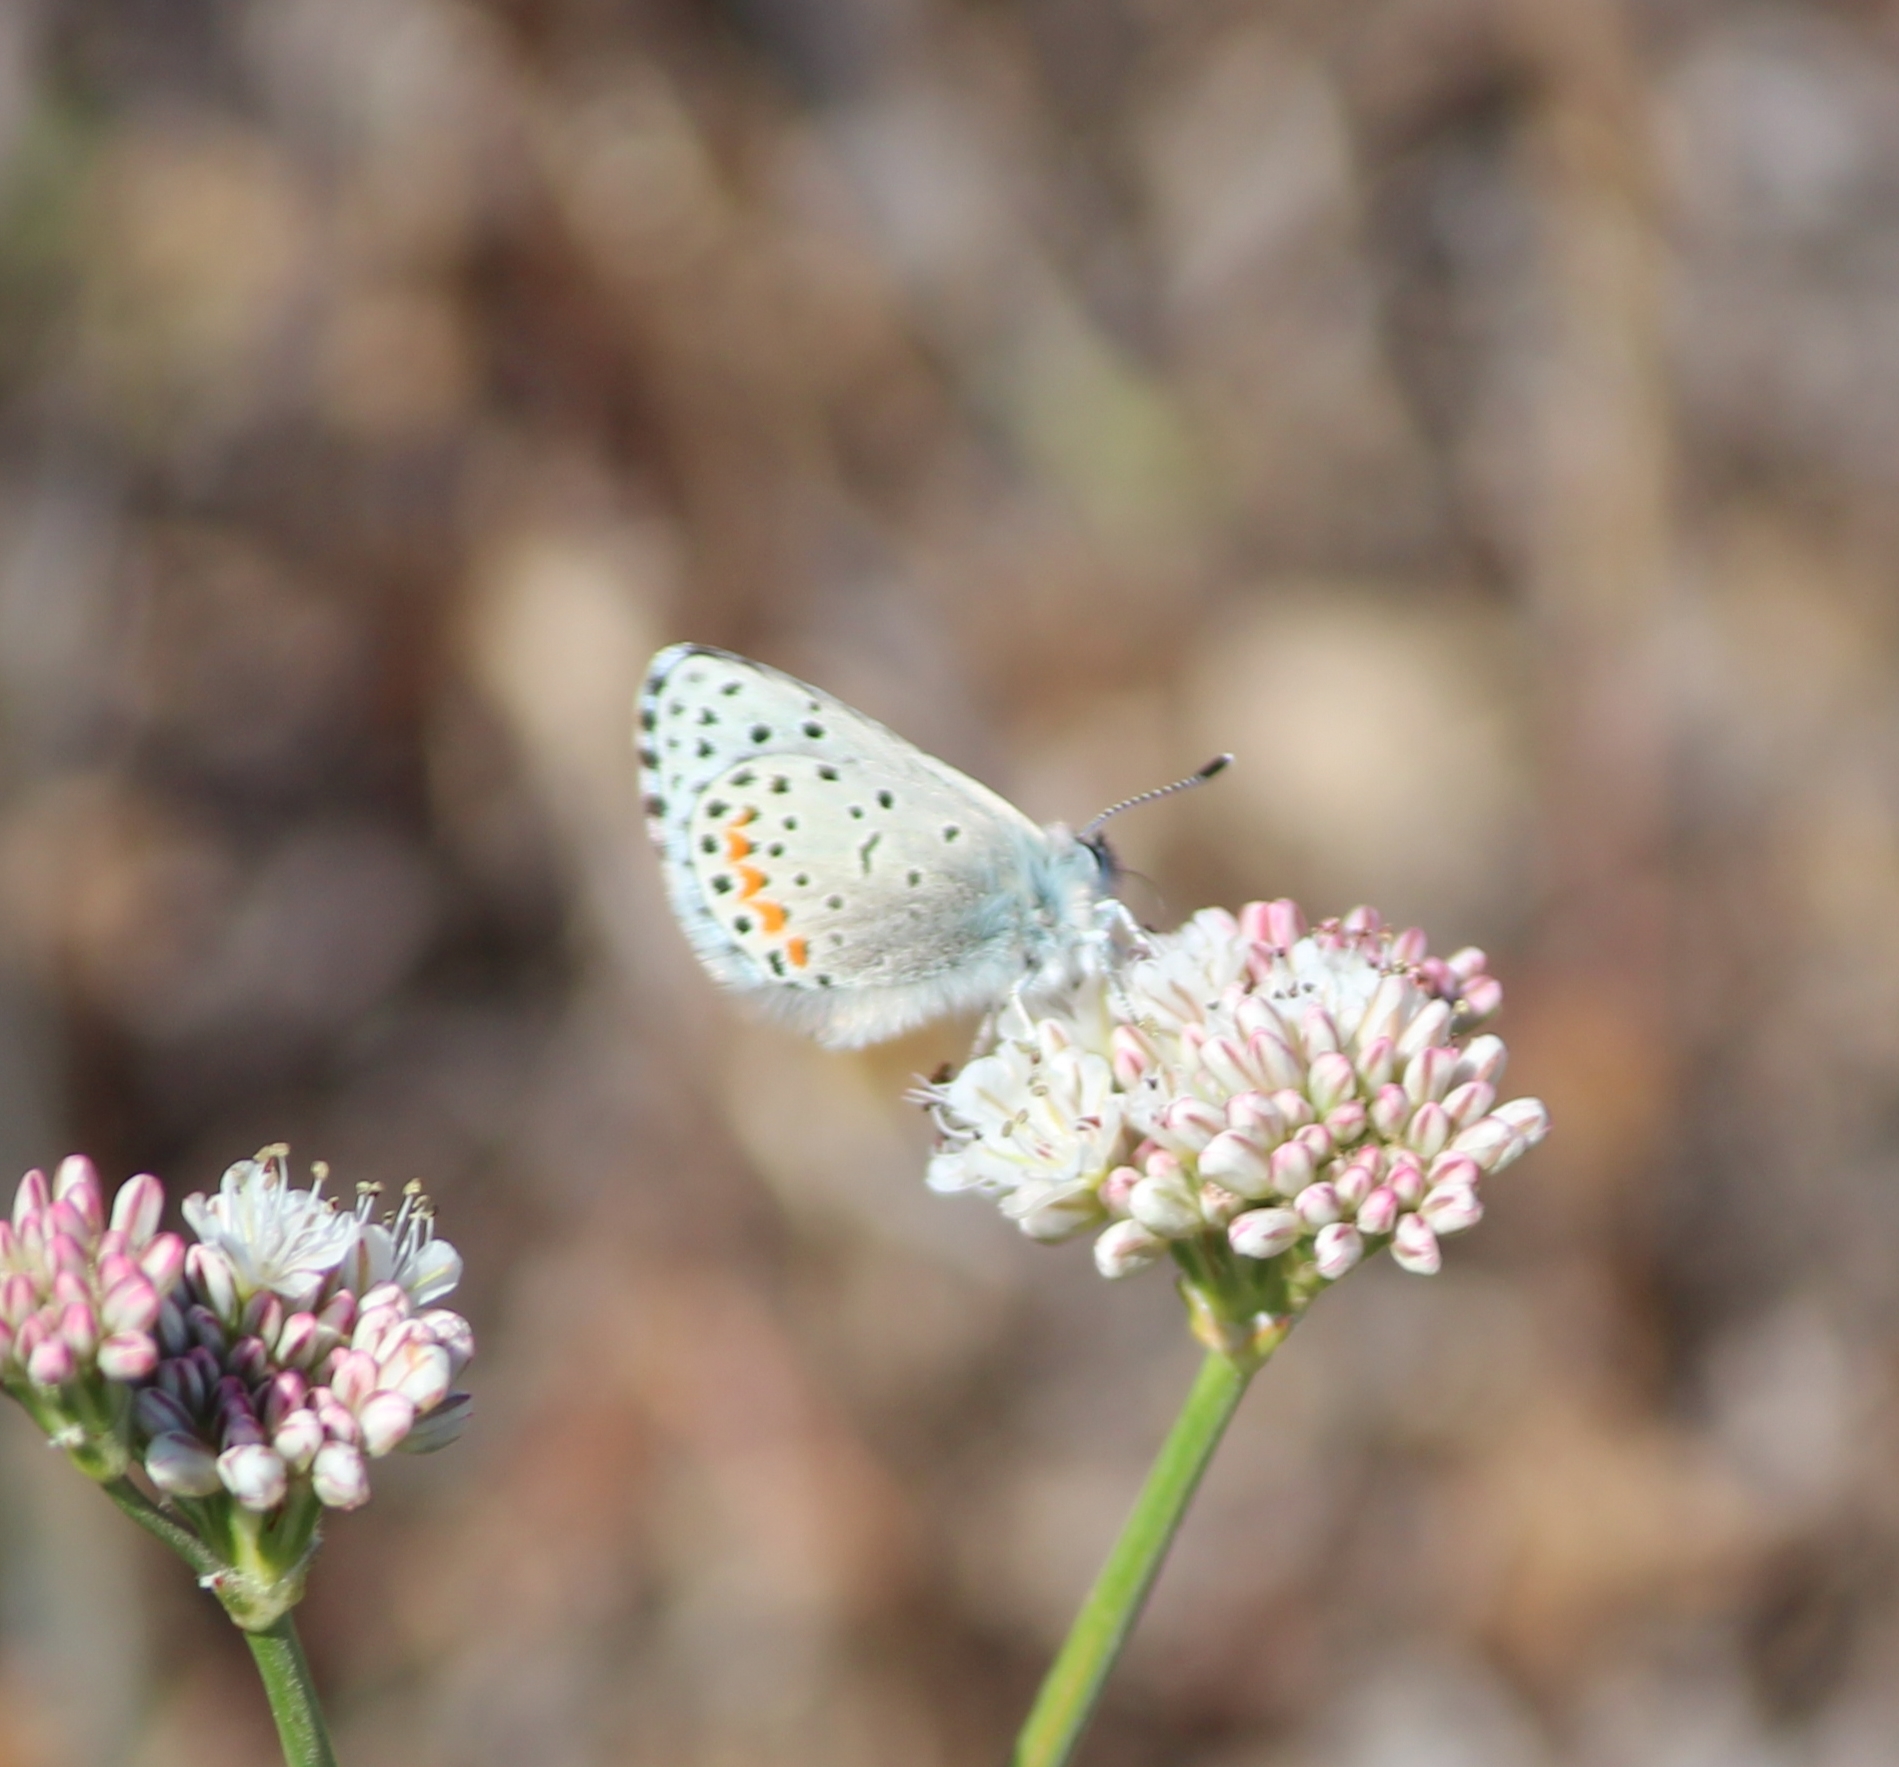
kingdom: Animalia
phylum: Arthropoda
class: Insecta
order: Lepidoptera
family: Lycaenidae
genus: Euphilotes
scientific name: Euphilotes enoptes
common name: Dotted blue
